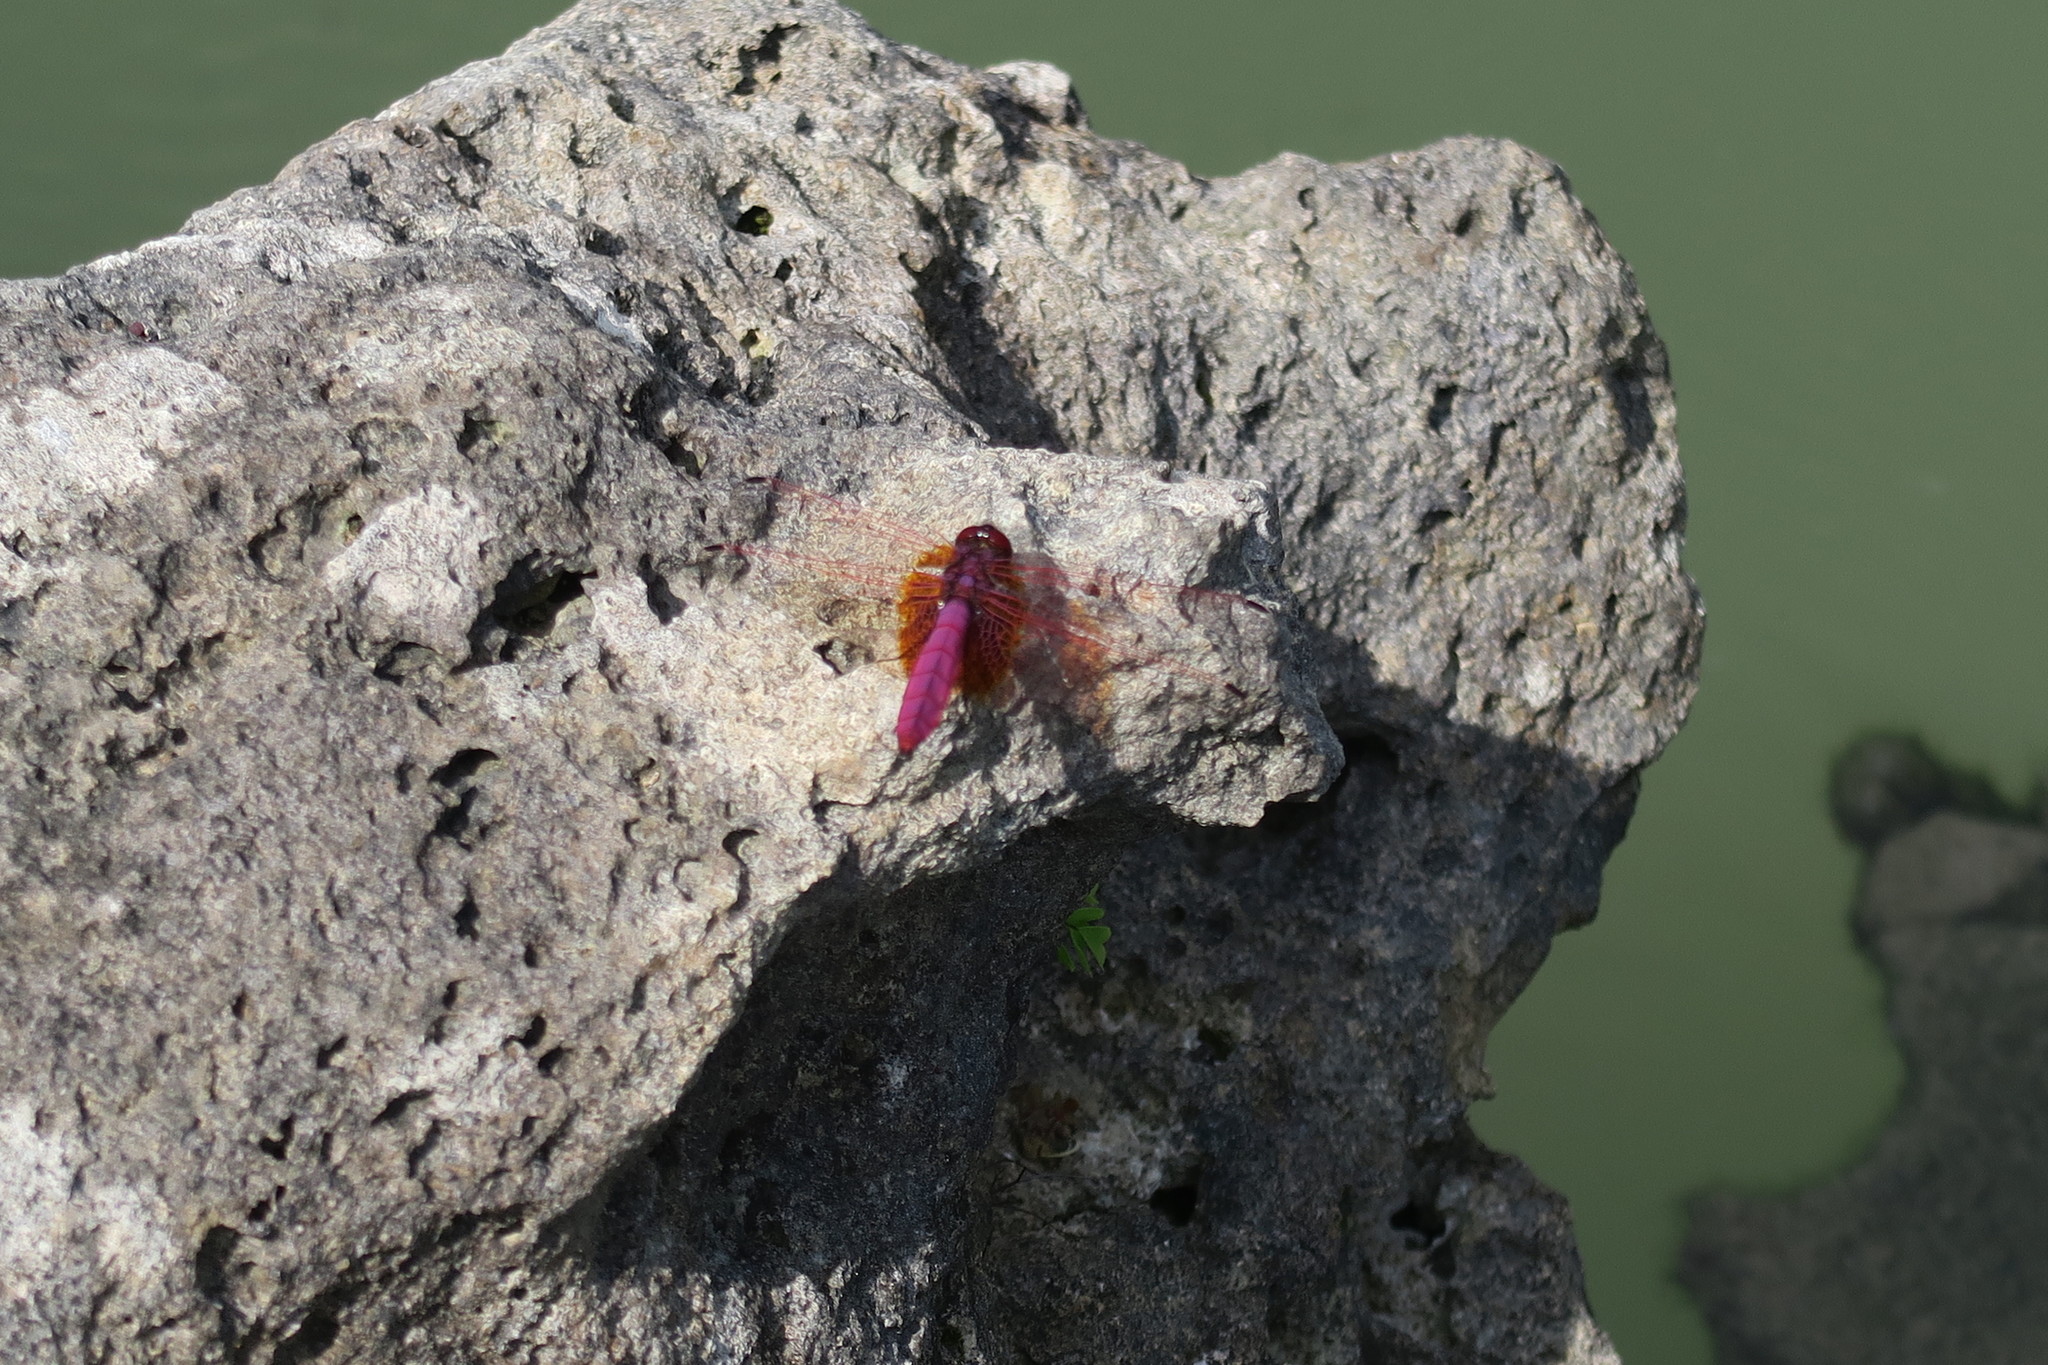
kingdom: Animalia
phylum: Arthropoda
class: Insecta
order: Odonata
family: Libellulidae
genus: Trithemis
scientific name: Trithemis aurora
